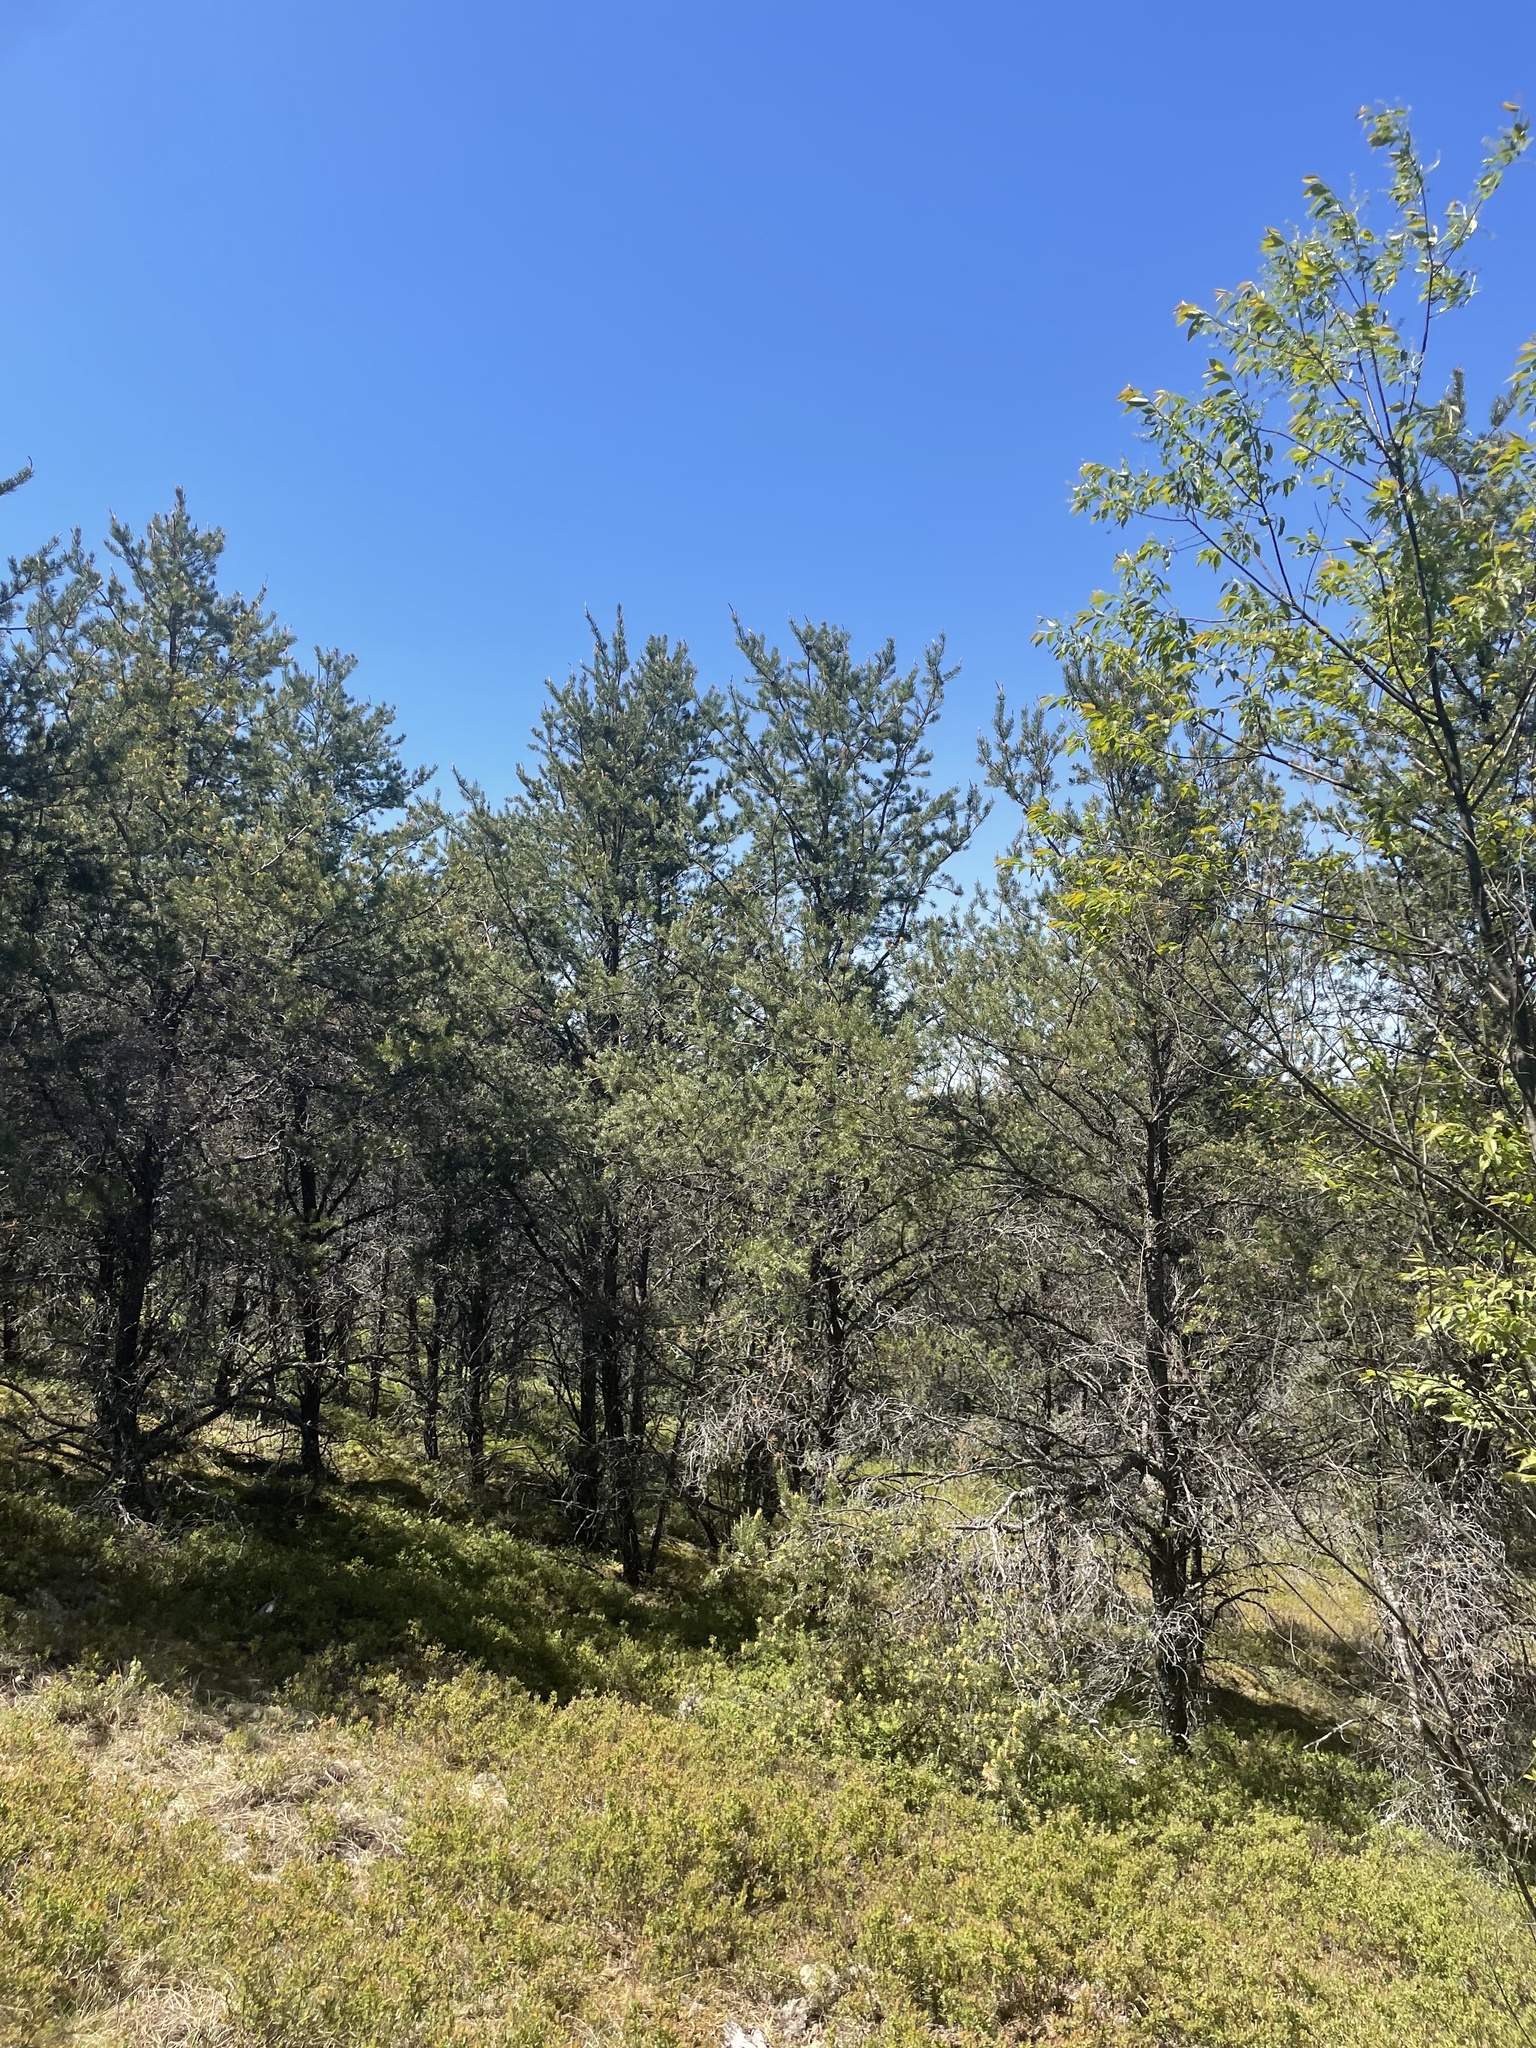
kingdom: Plantae
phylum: Tracheophyta
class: Pinopsida
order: Pinales
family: Pinaceae
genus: Pinus
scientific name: Pinus banksiana
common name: Jack pine
